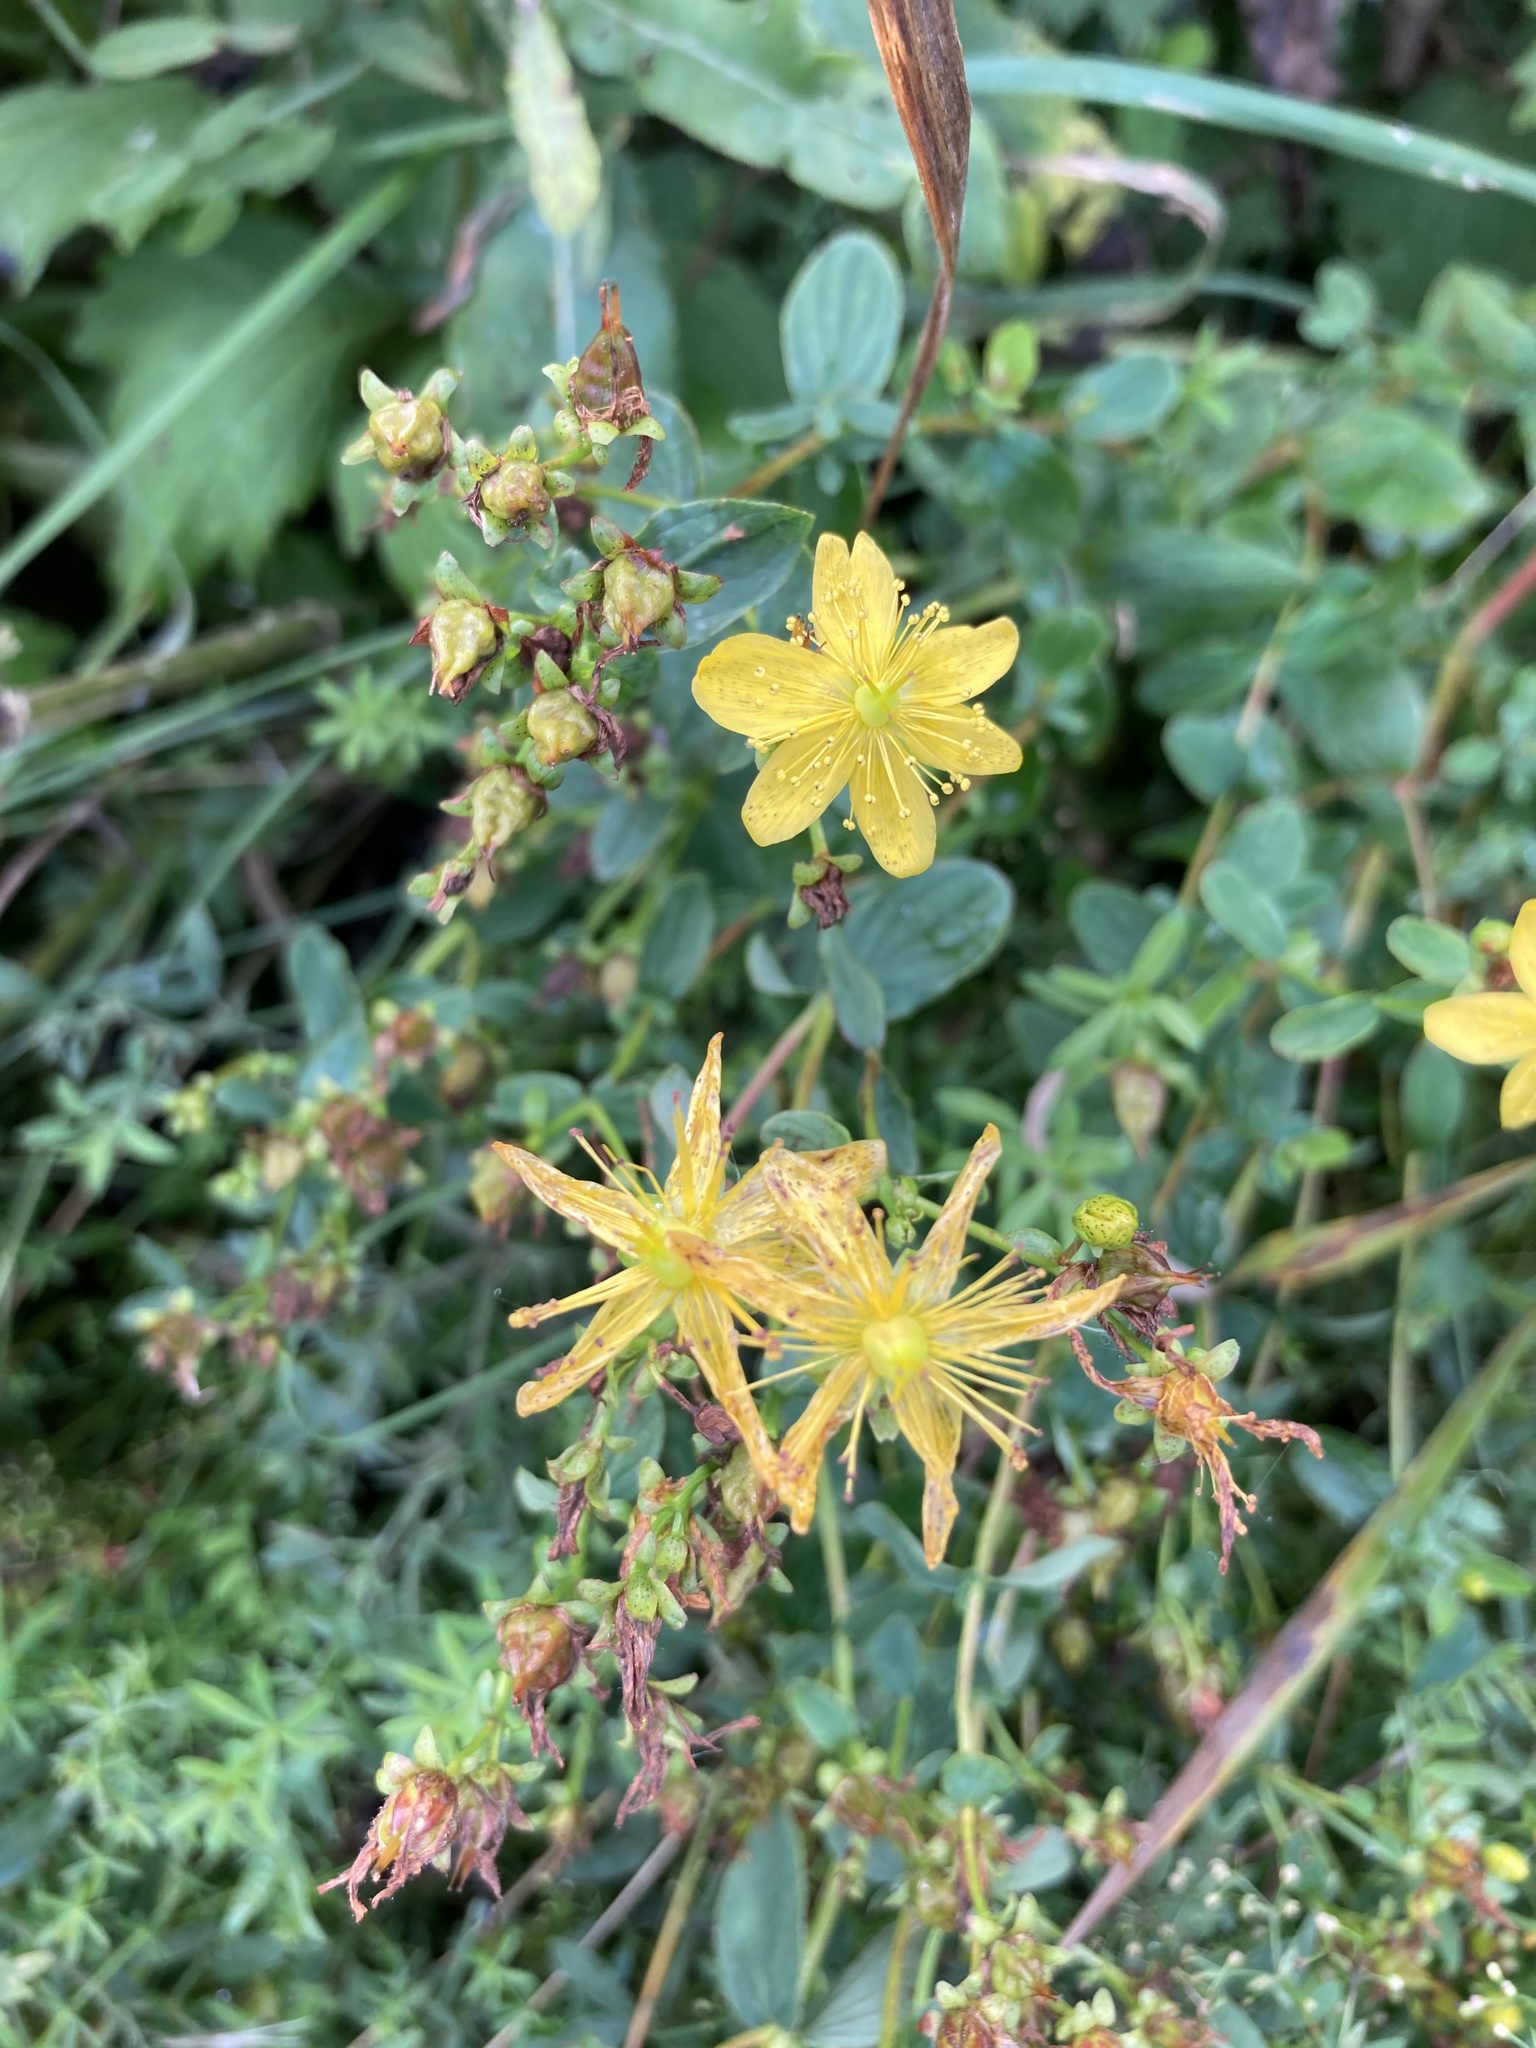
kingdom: Plantae
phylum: Tracheophyta
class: Magnoliopsida
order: Malpighiales
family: Hypericaceae
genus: Hypericum
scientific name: Hypericum maculatum
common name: Imperforate st. john's-wort
